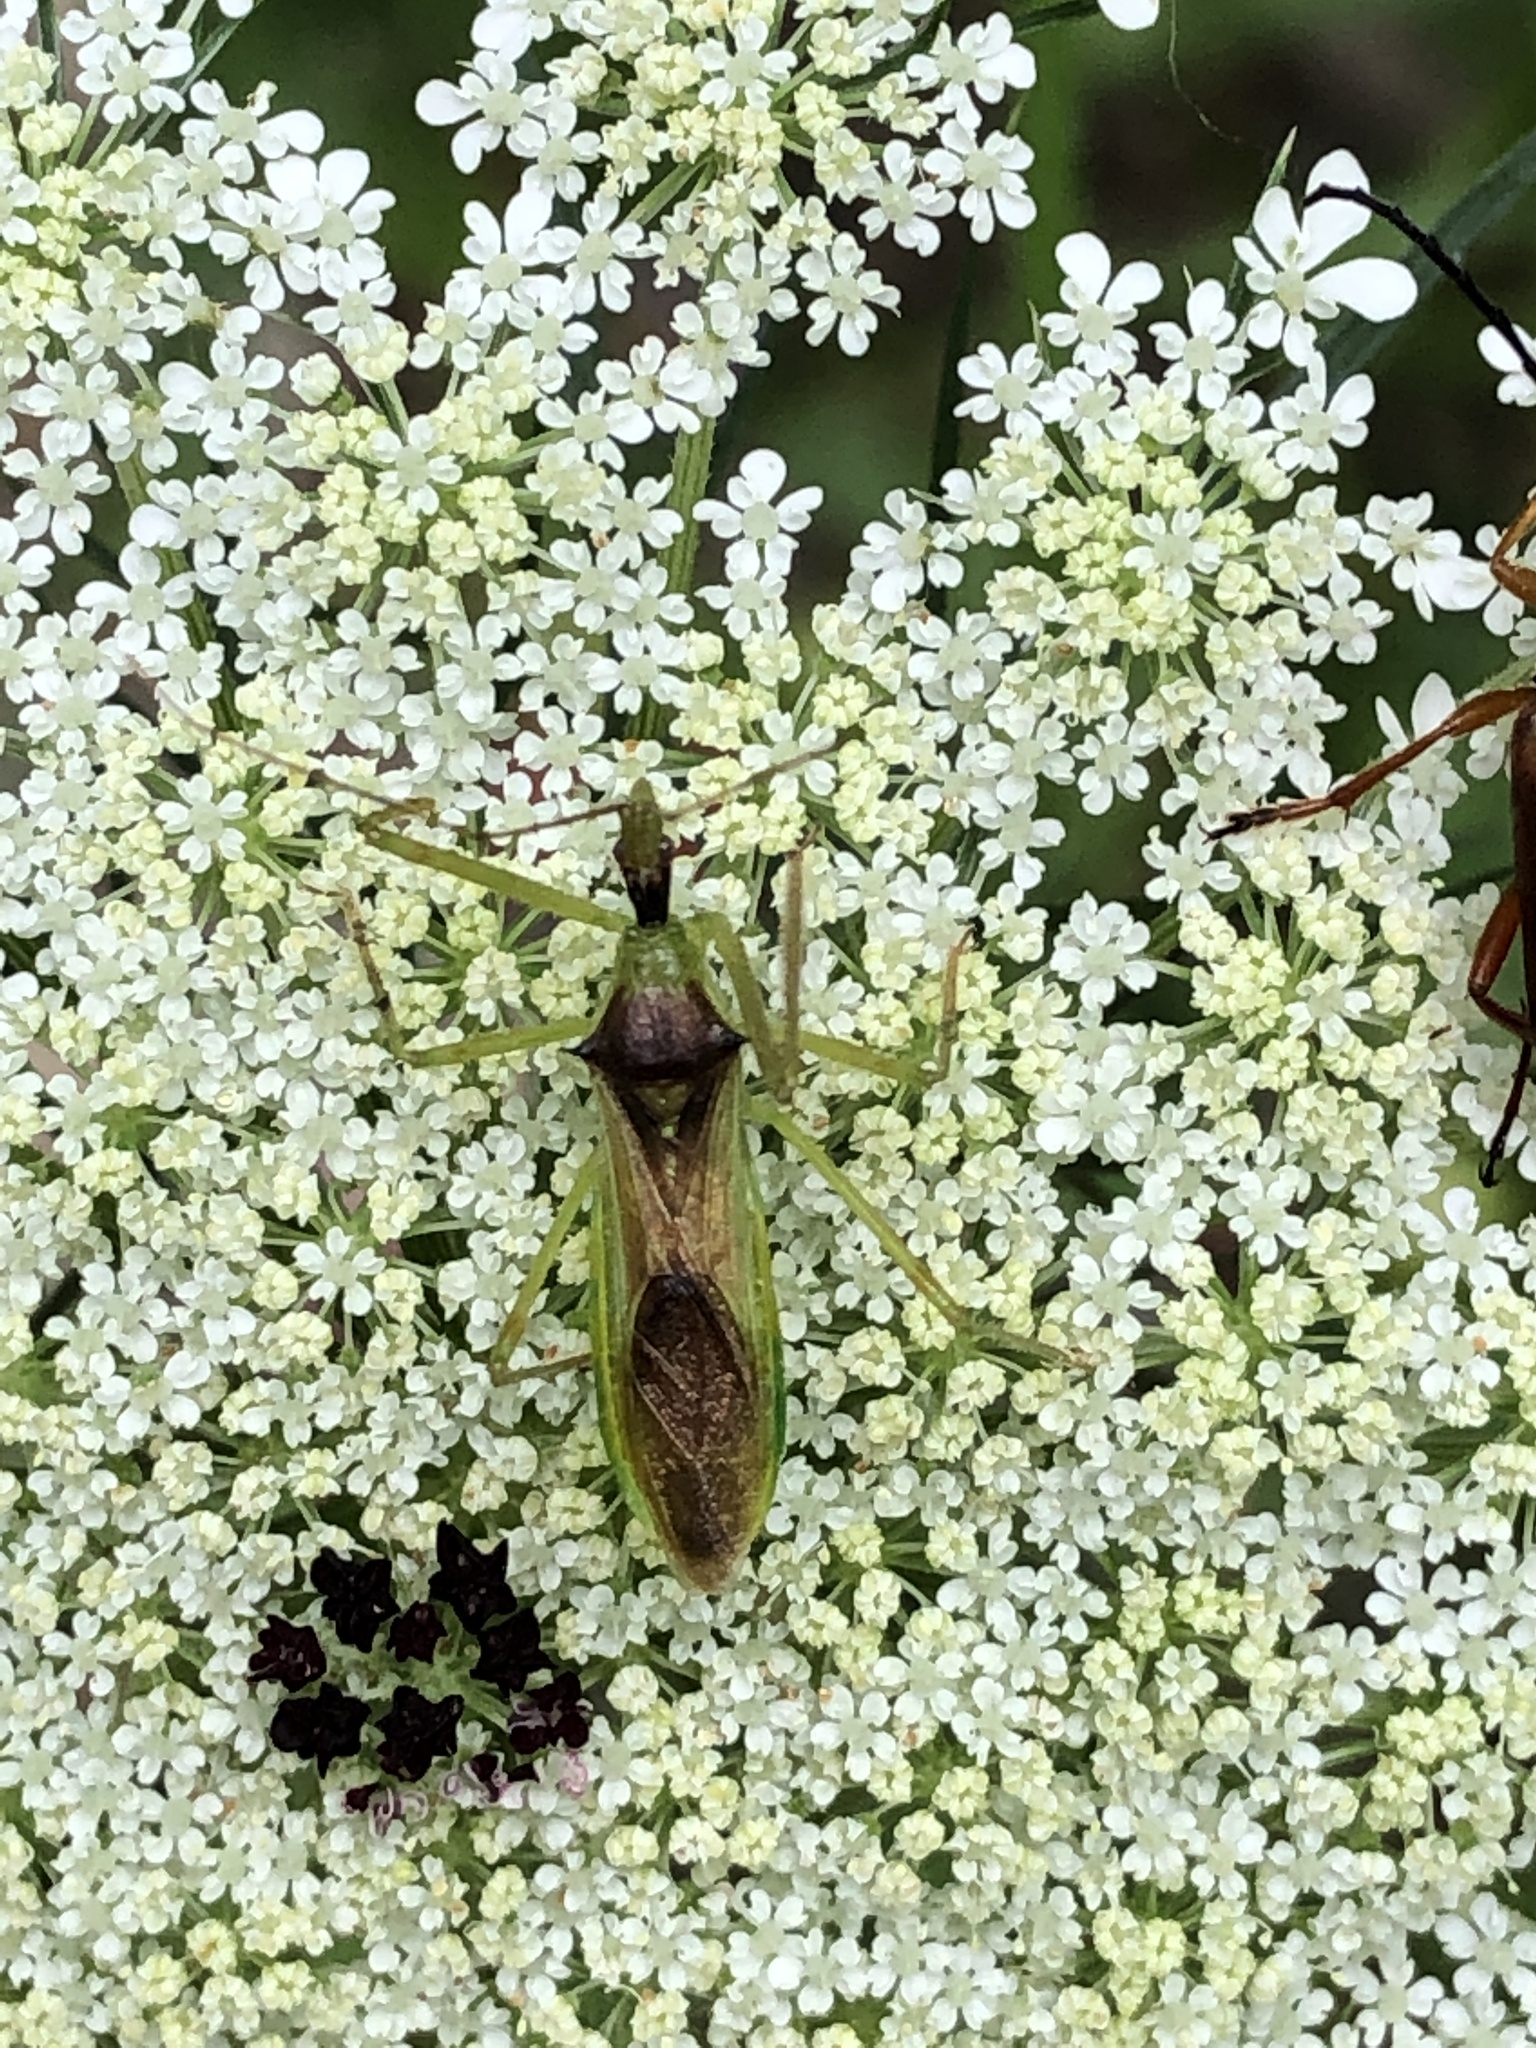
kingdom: Animalia
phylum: Arthropoda
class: Insecta
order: Hemiptera
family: Reduviidae
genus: Zelus
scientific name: Zelus luridus
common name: Pale green assassin bug
